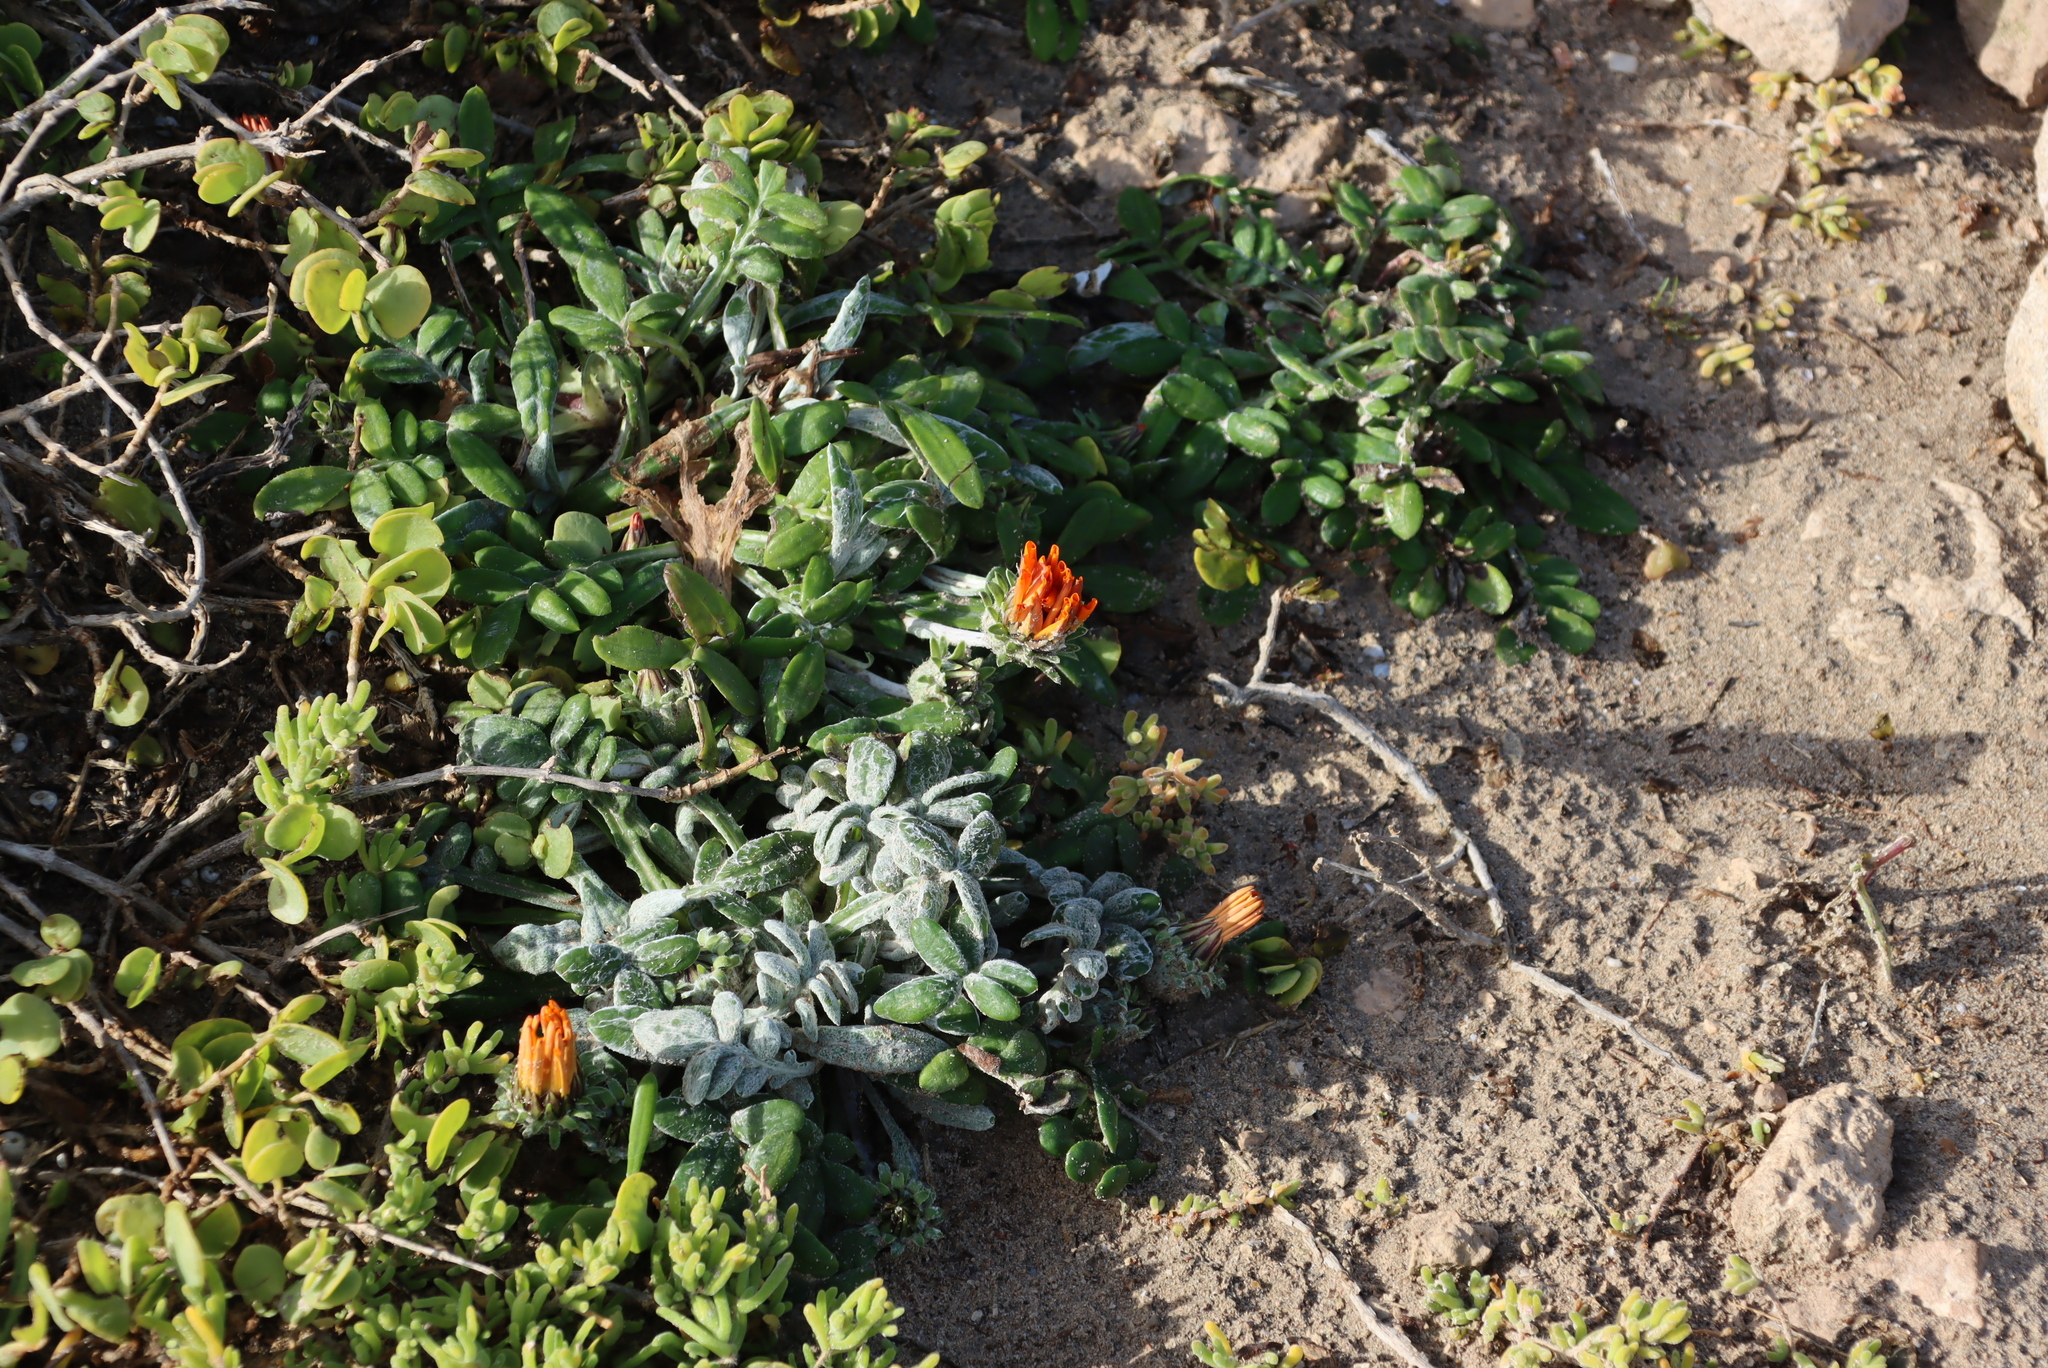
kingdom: Plantae
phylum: Tracheophyta
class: Magnoliopsida
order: Asterales
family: Asteraceae
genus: Gazania
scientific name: Gazania pectinata
